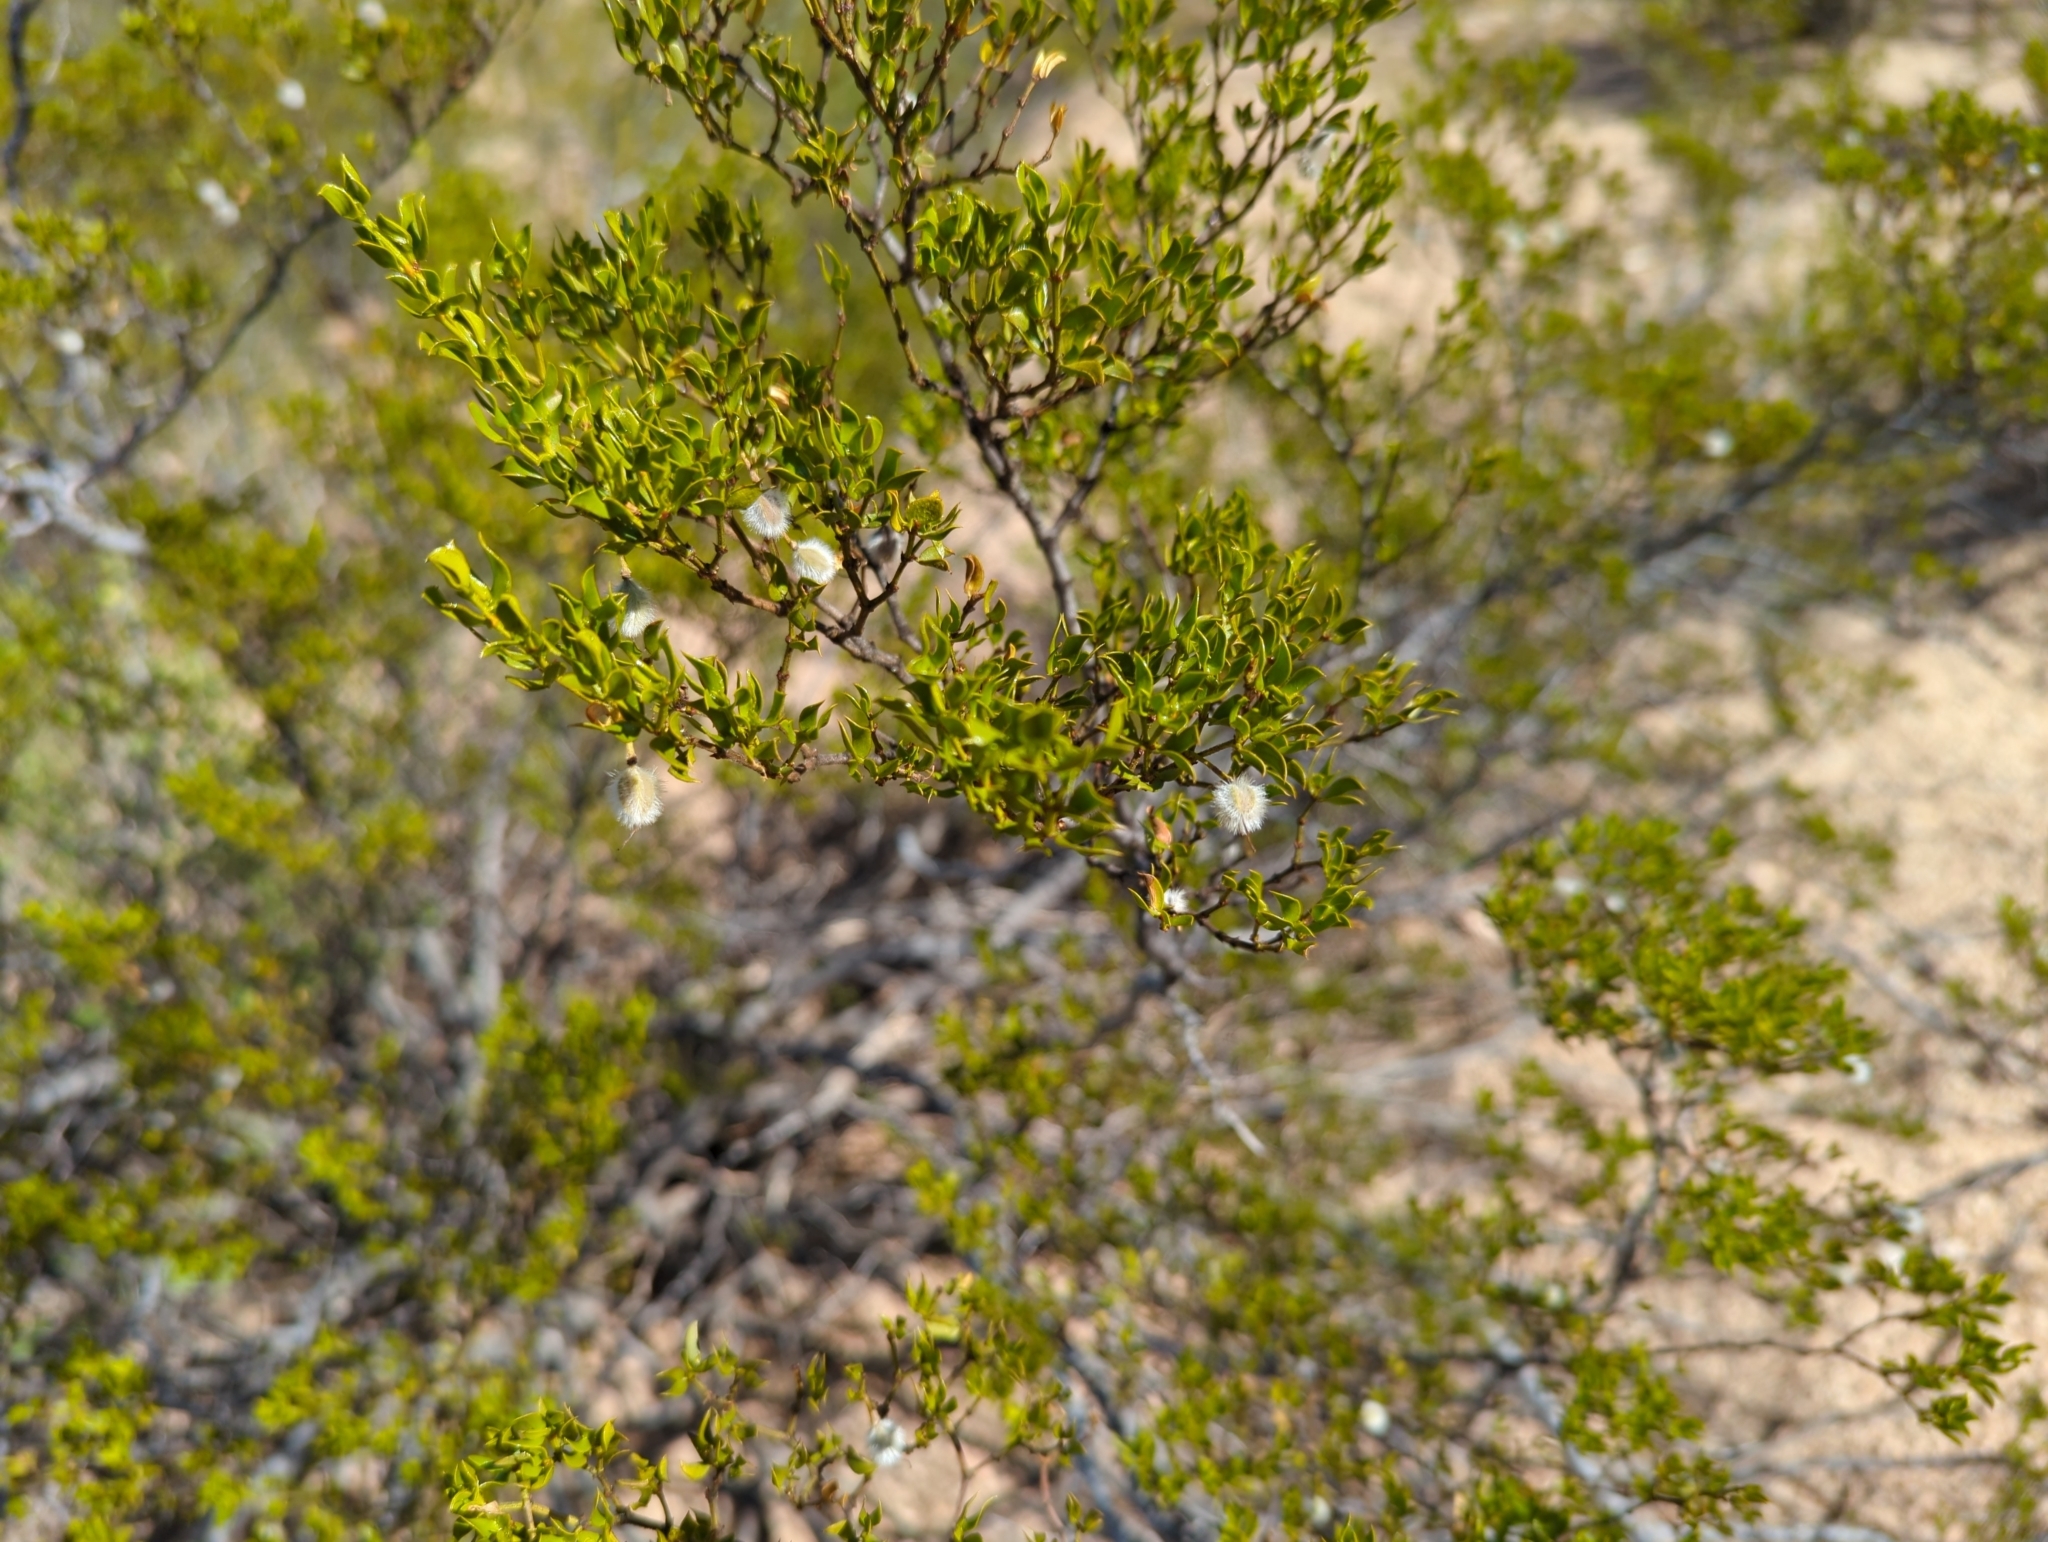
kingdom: Plantae
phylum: Tracheophyta
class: Magnoliopsida
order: Zygophyllales
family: Zygophyllaceae
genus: Larrea
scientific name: Larrea tridentata
